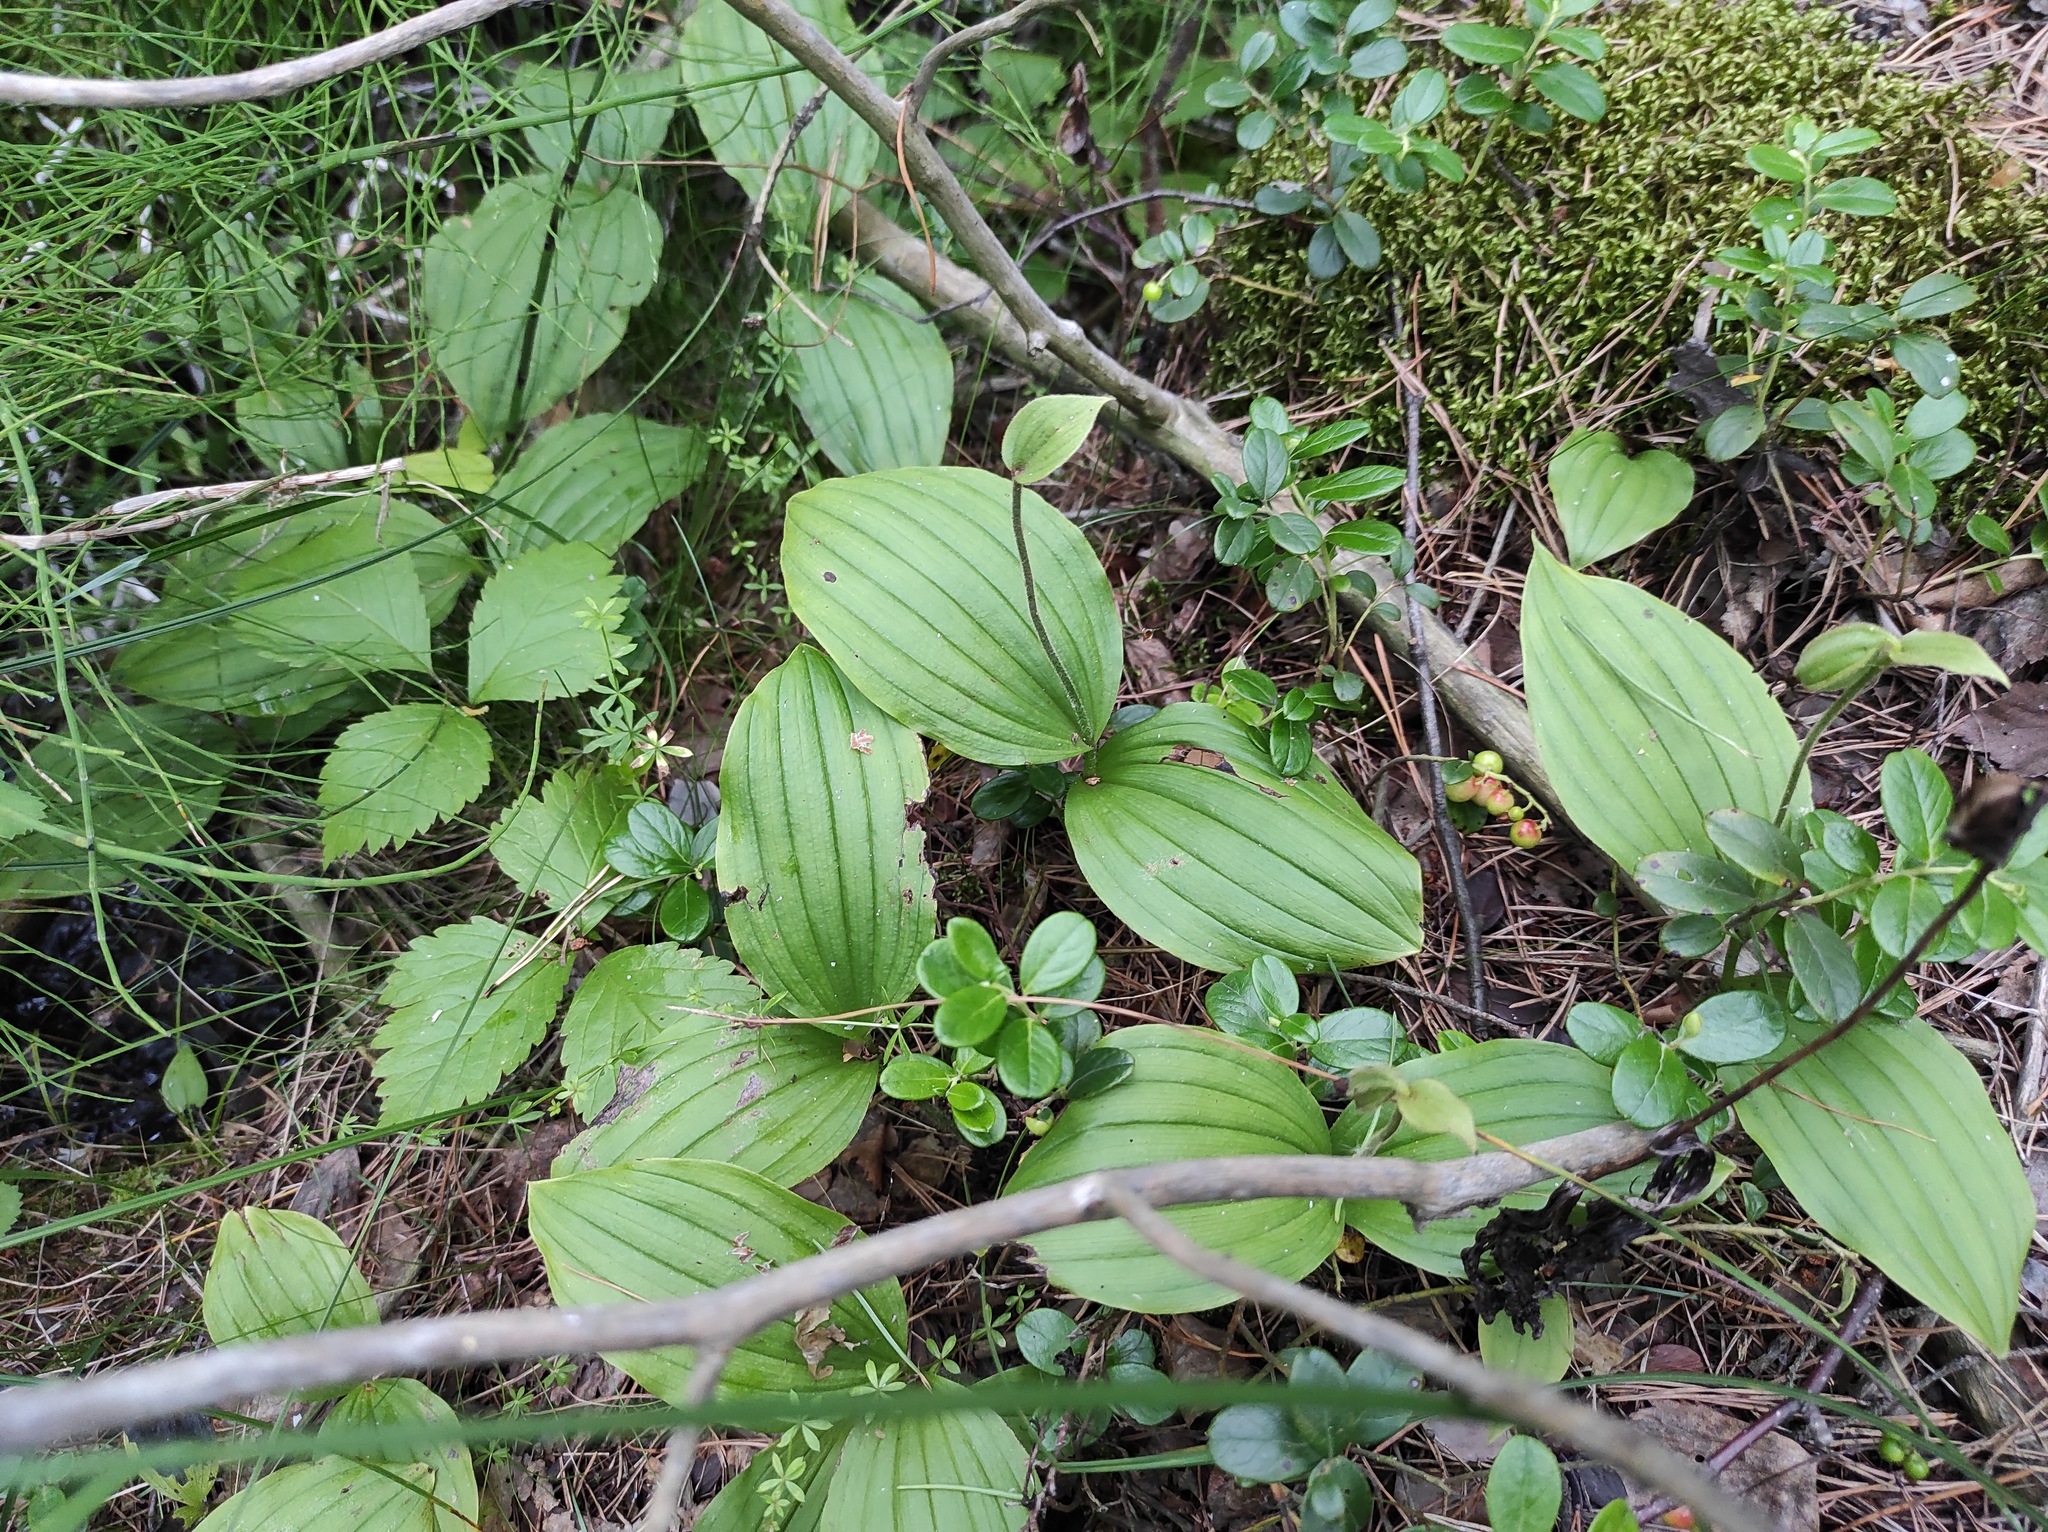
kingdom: Plantae
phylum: Tracheophyta
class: Liliopsida
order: Asparagales
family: Orchidaceae
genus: Cypripedium
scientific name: Cypripedium guttatum
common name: Pink lady slipper
